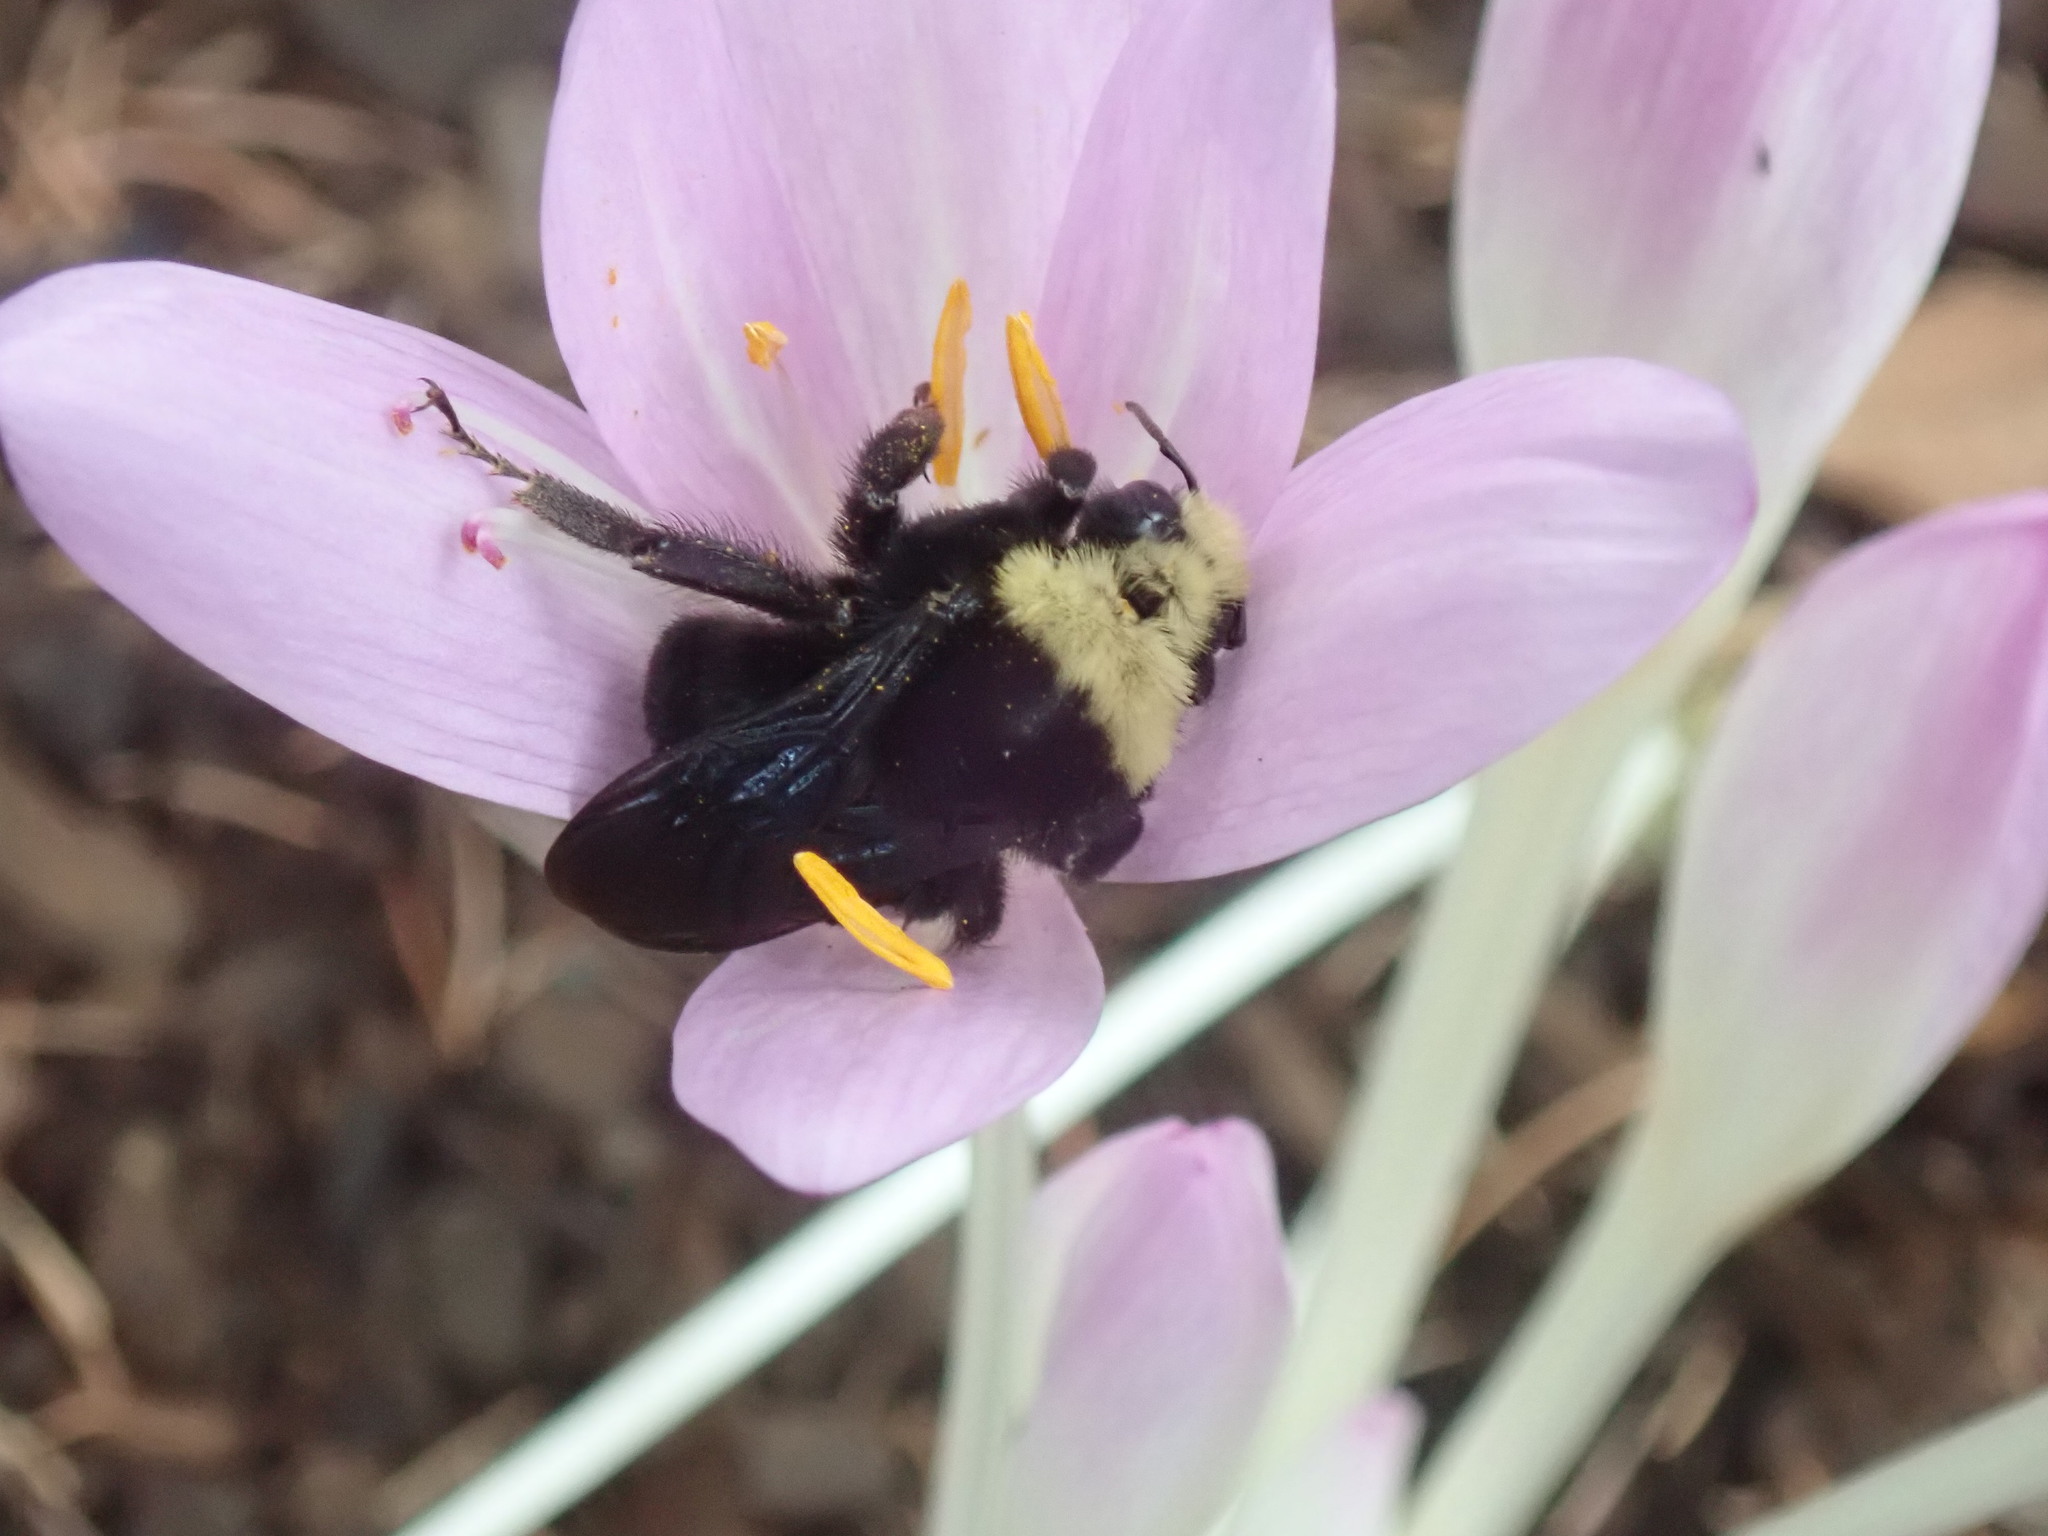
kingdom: Animalia
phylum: Arthropoda
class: Insecta
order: Hymenoptera
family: Apidae
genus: Bombus
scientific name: Bombus vosnesenskii
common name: Vosnesensky bumble bee
